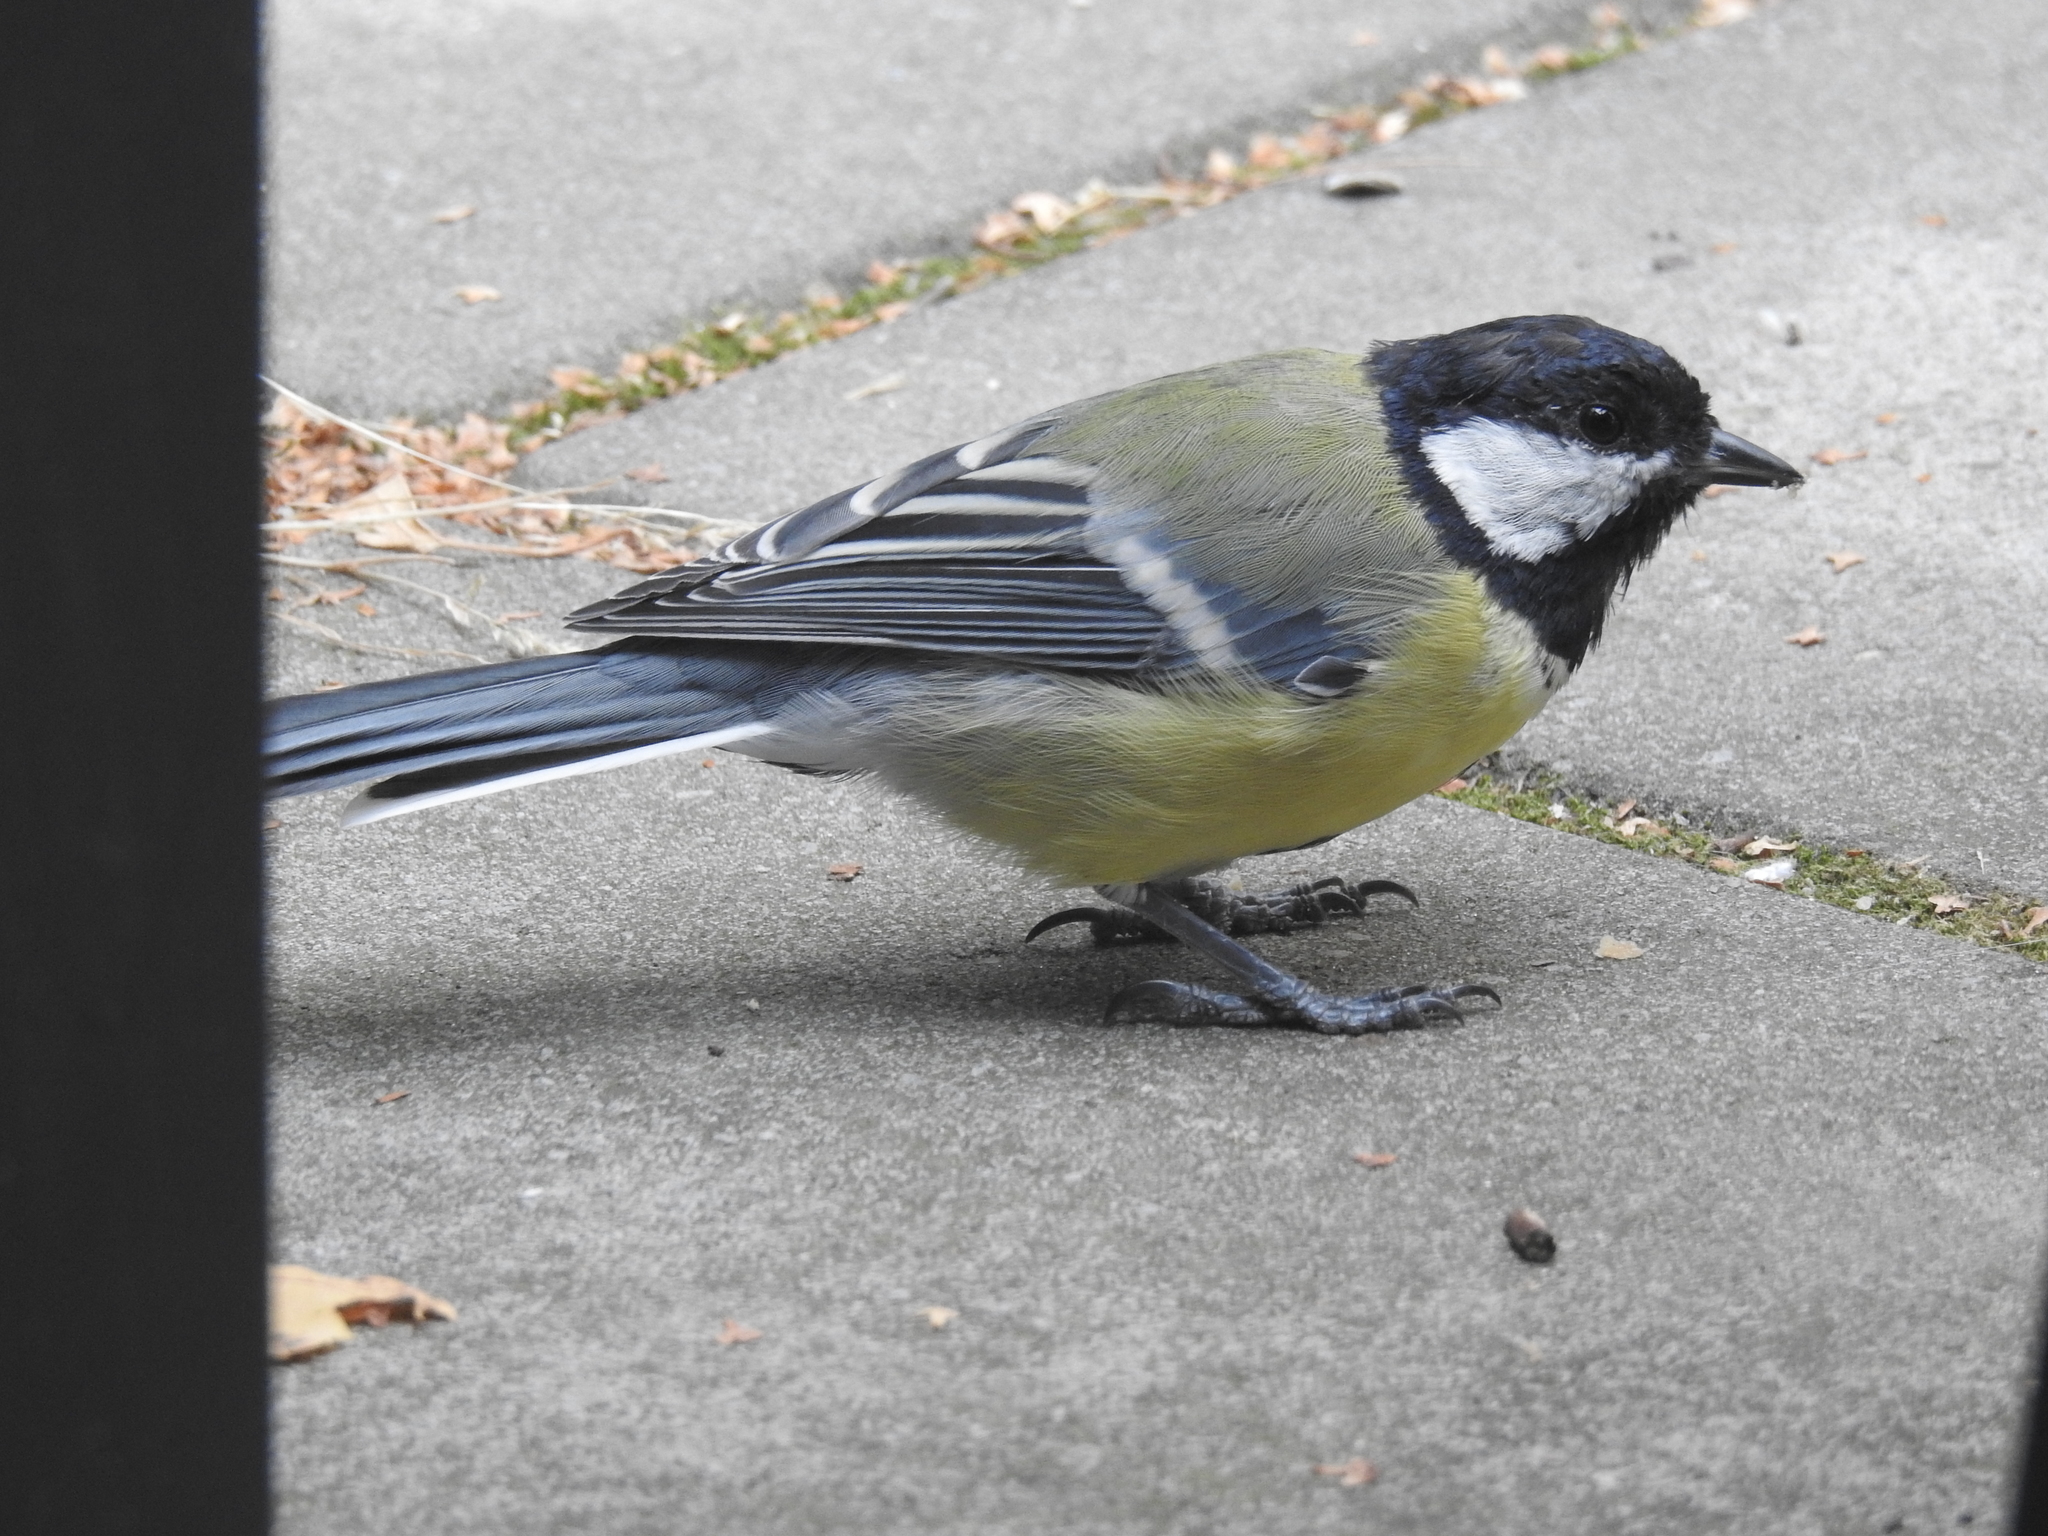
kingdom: Animalia
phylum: Chordata
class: Aves
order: Passeriformes
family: Paridae
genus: Parus
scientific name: Parus major
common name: Great tit
